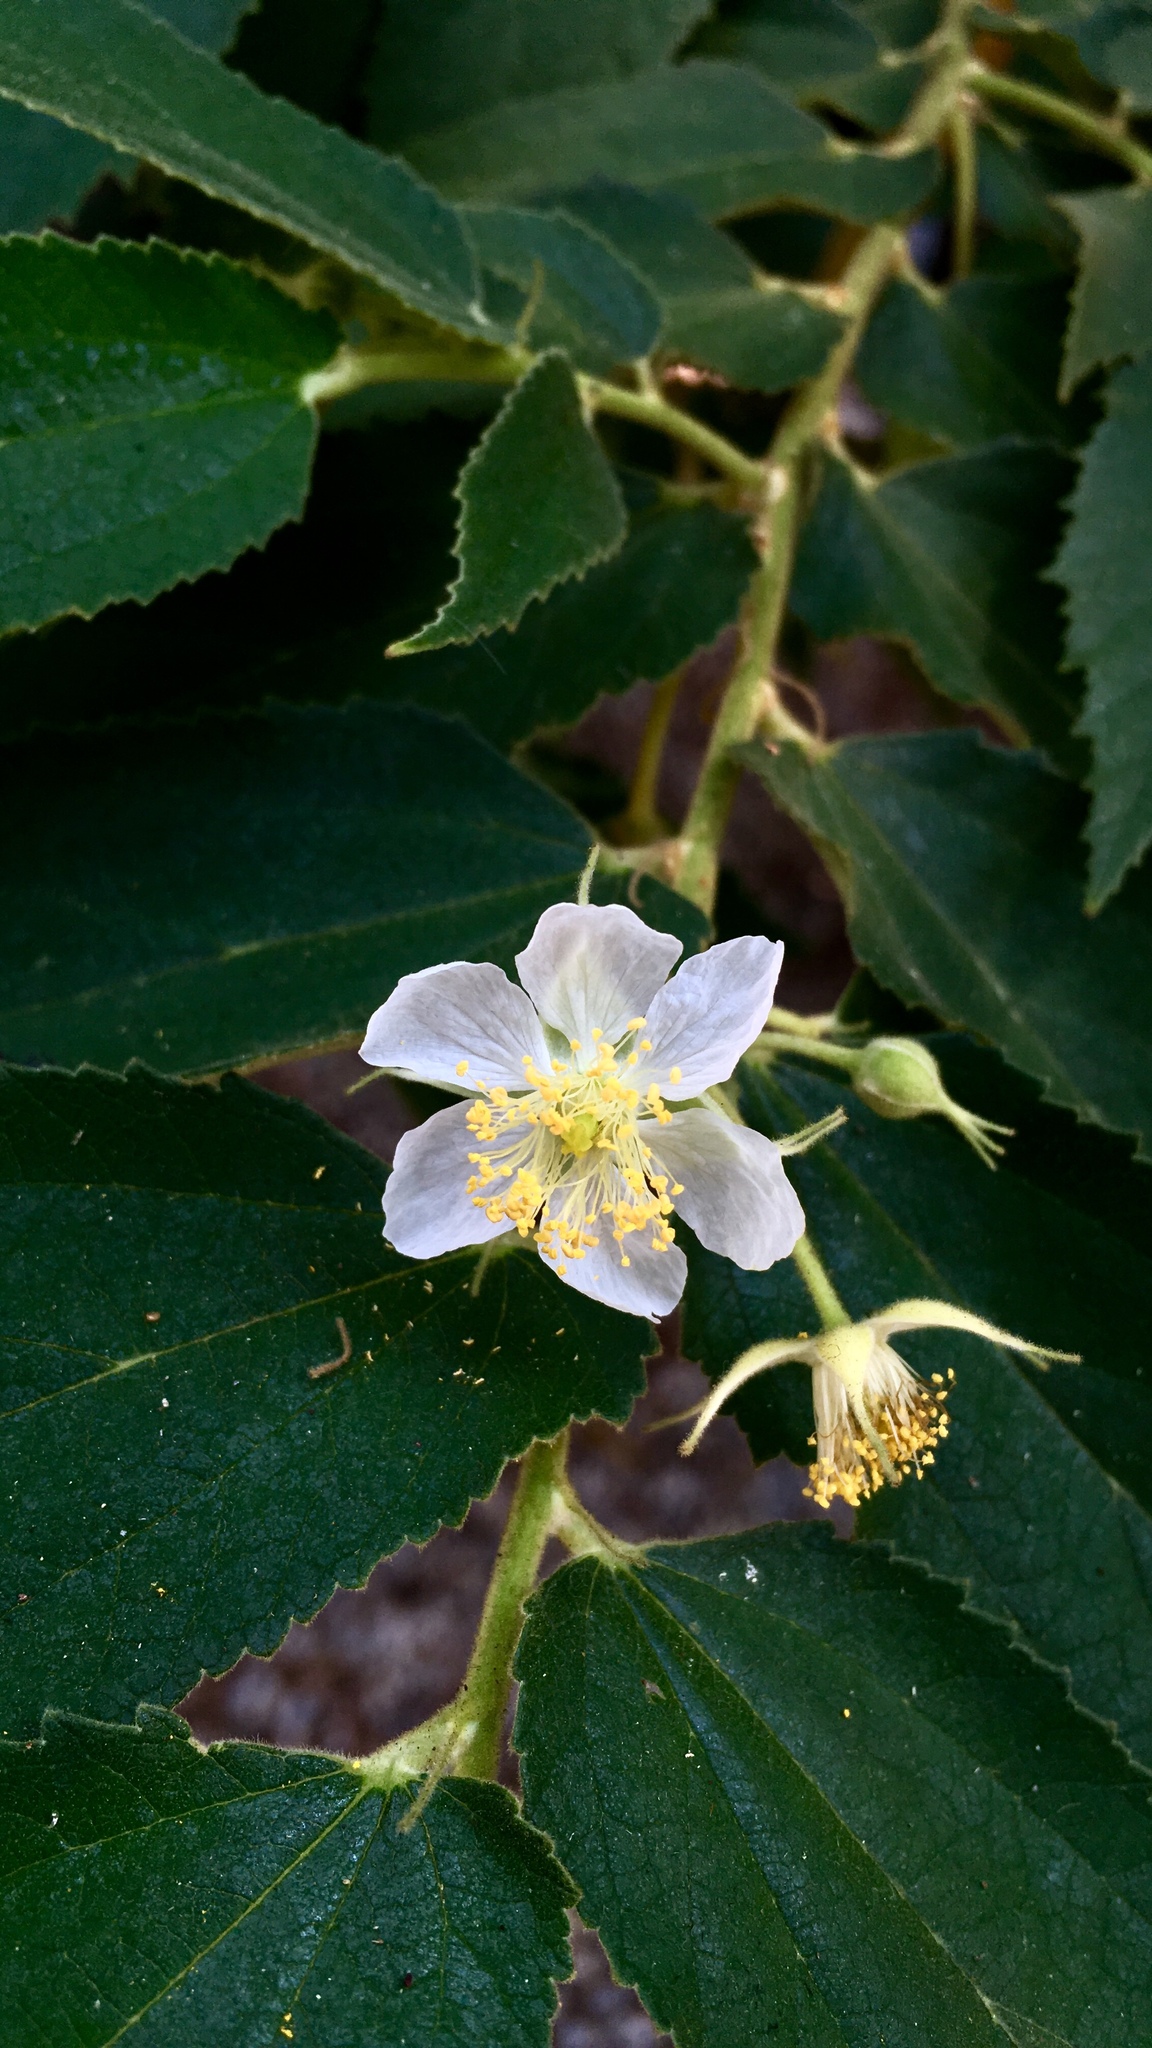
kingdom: Plantae
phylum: Tracheophyta
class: Magnoliopsida
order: Malvales
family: Muntingiaceae
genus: Muntingia
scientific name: Muntingia calabura
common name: Strawberrytree
